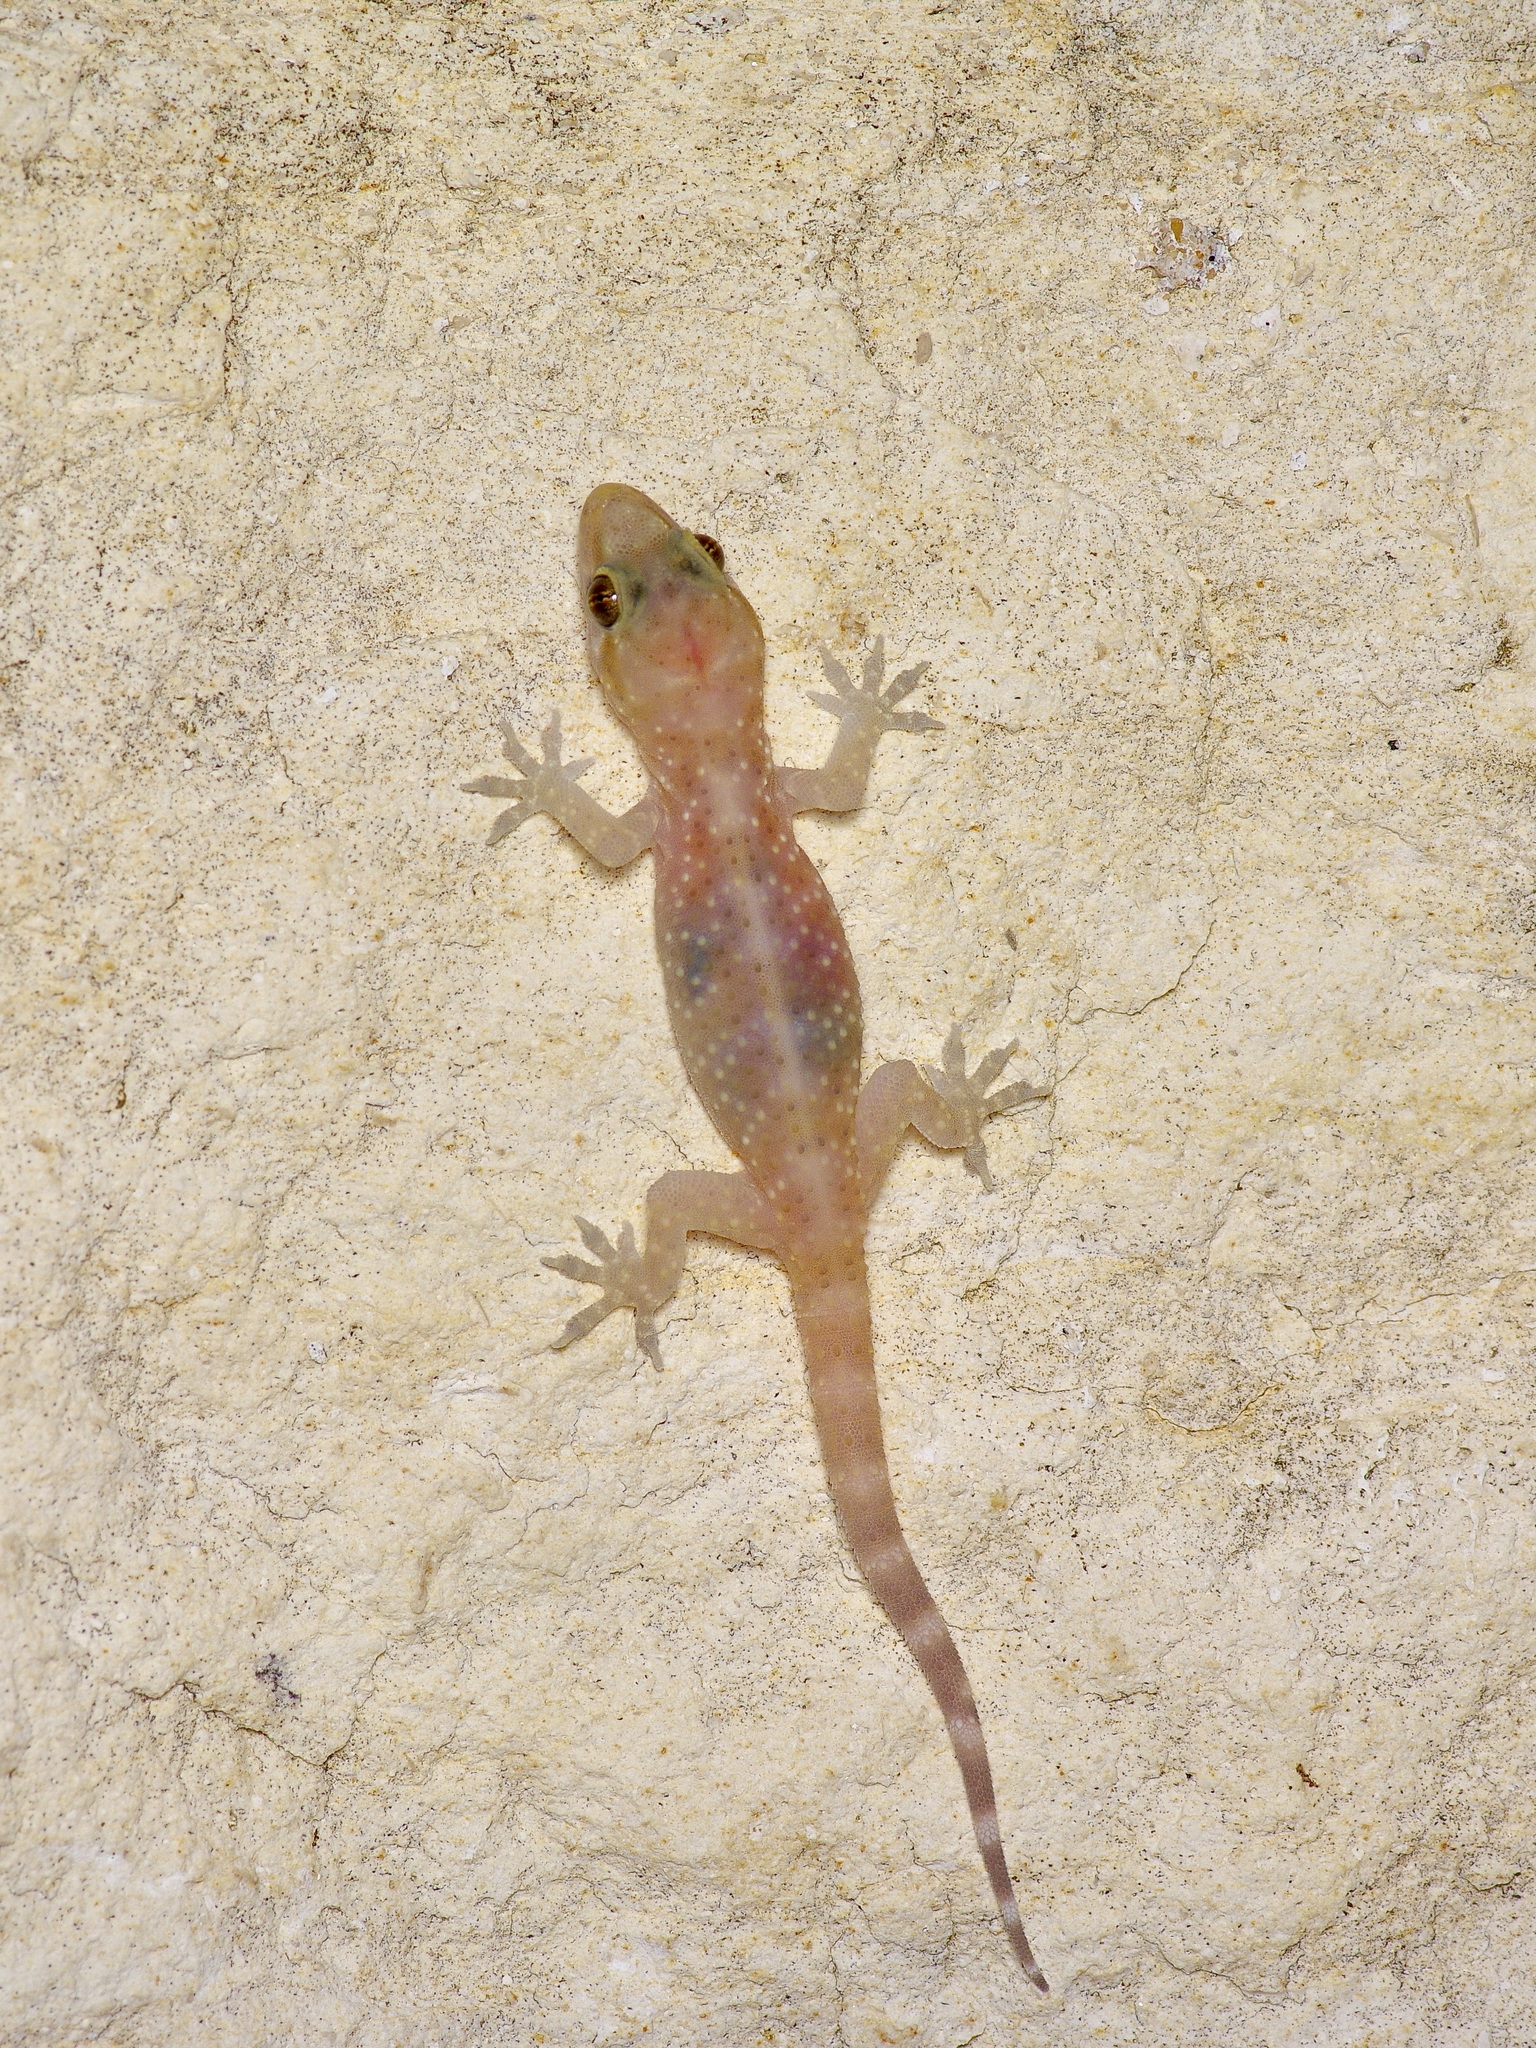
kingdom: Animalia
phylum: Chordata
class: Squamata
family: Gekkonidae
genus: Hemidactylus
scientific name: Hemidactylus turcicus
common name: Turkish gecko
